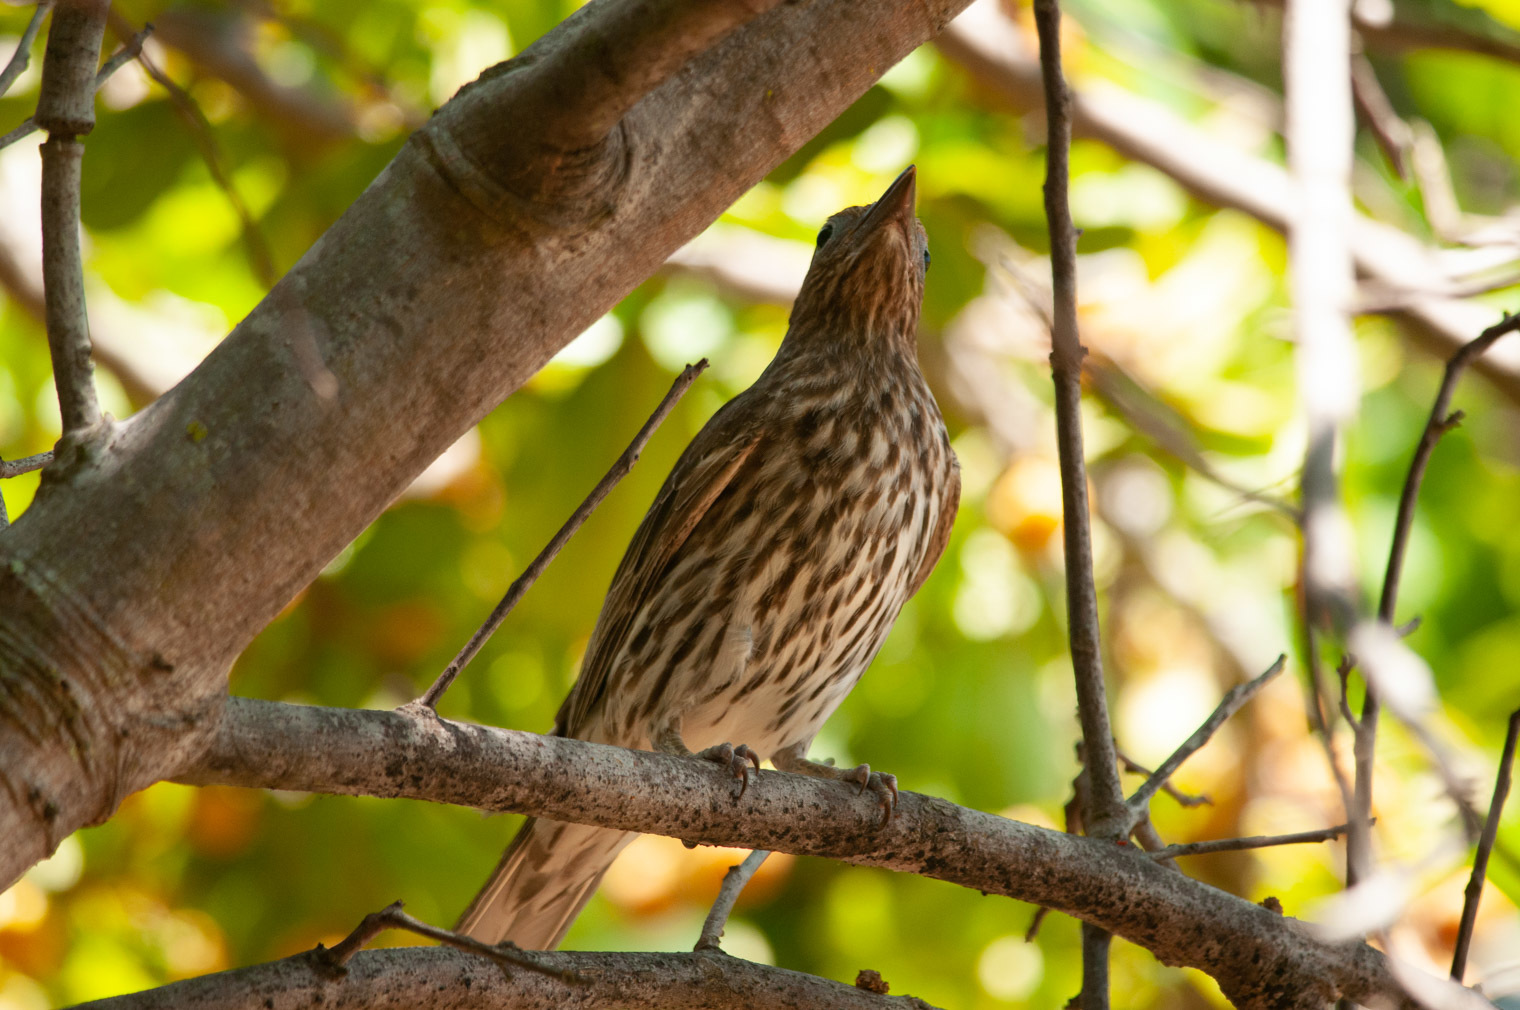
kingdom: Animalia
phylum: Chordata
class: Aves
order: Passeriformes
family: Oriolidae
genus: Sphecotheres
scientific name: Sphecotheres vieilloti
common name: Australasian figbird
